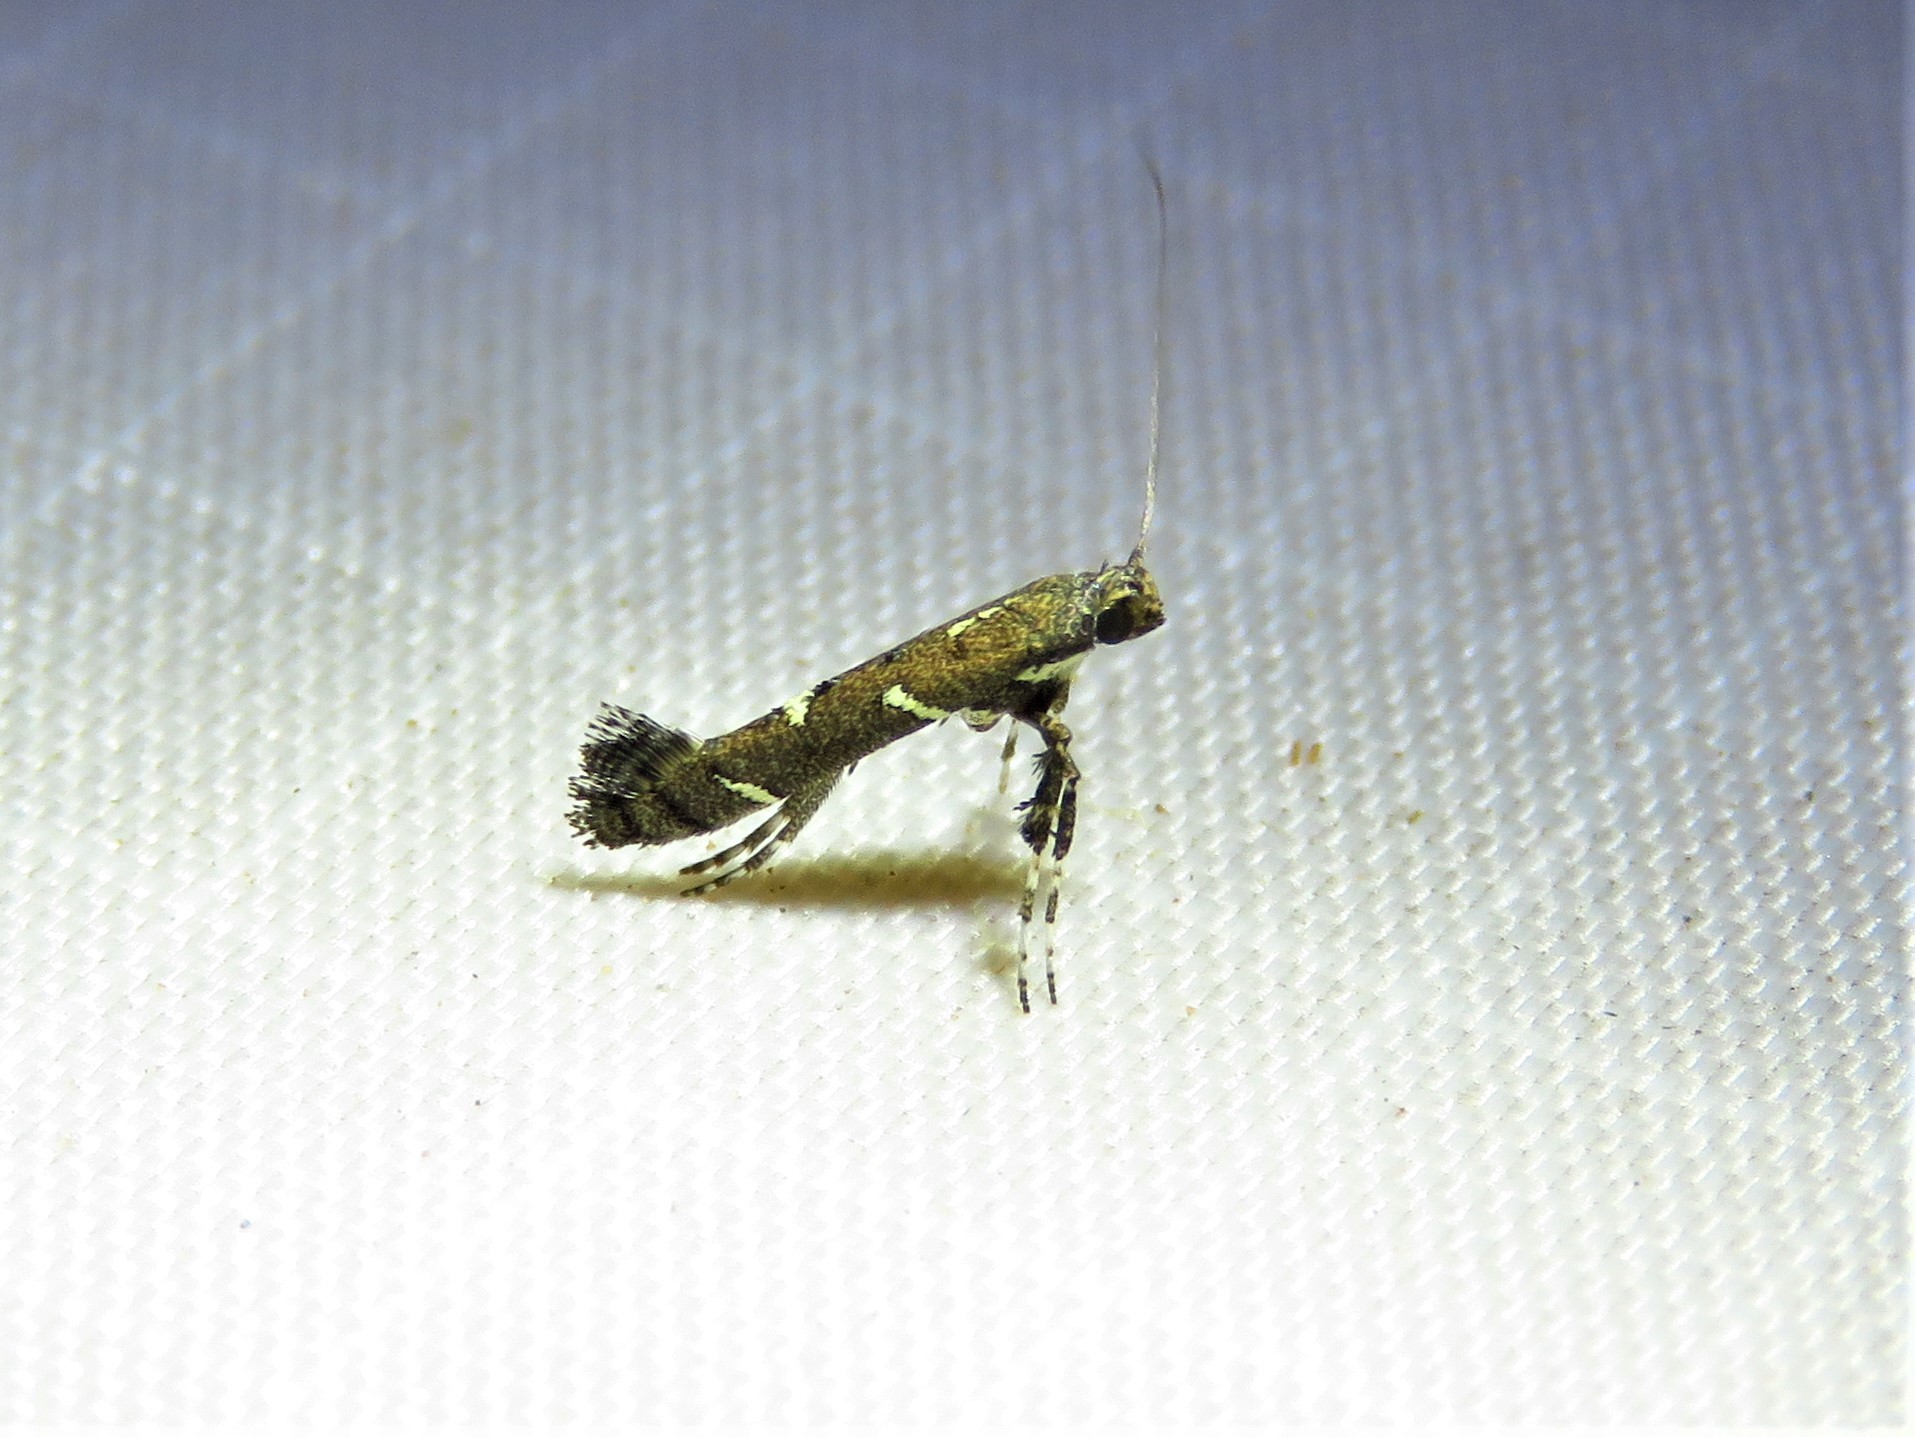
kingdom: Animalia
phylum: Arthropoda
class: Insecta
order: Lepidoptera
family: Gracillariidae
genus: Caloptilia
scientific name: Caloptilia triadicae
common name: Tallow leaf roller
